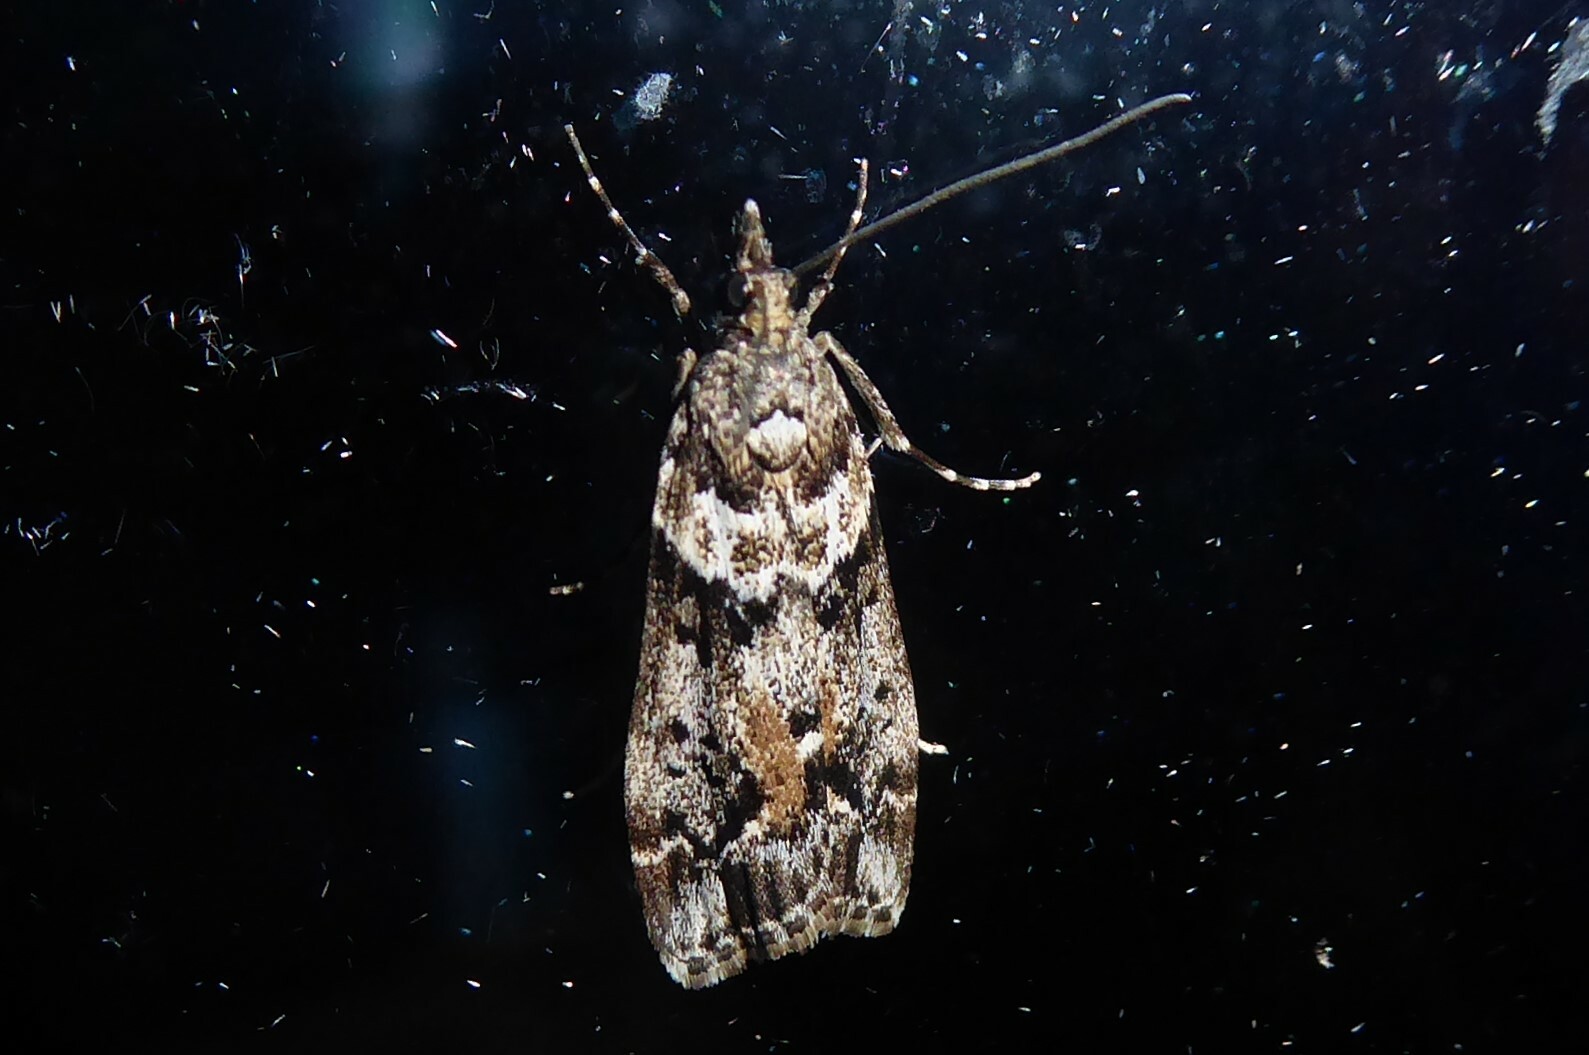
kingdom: Animalia
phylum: Arthropoda
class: Insecta
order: Lepidoptera
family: Crambidae
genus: Eudonia
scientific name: Eudonia submarginalis
